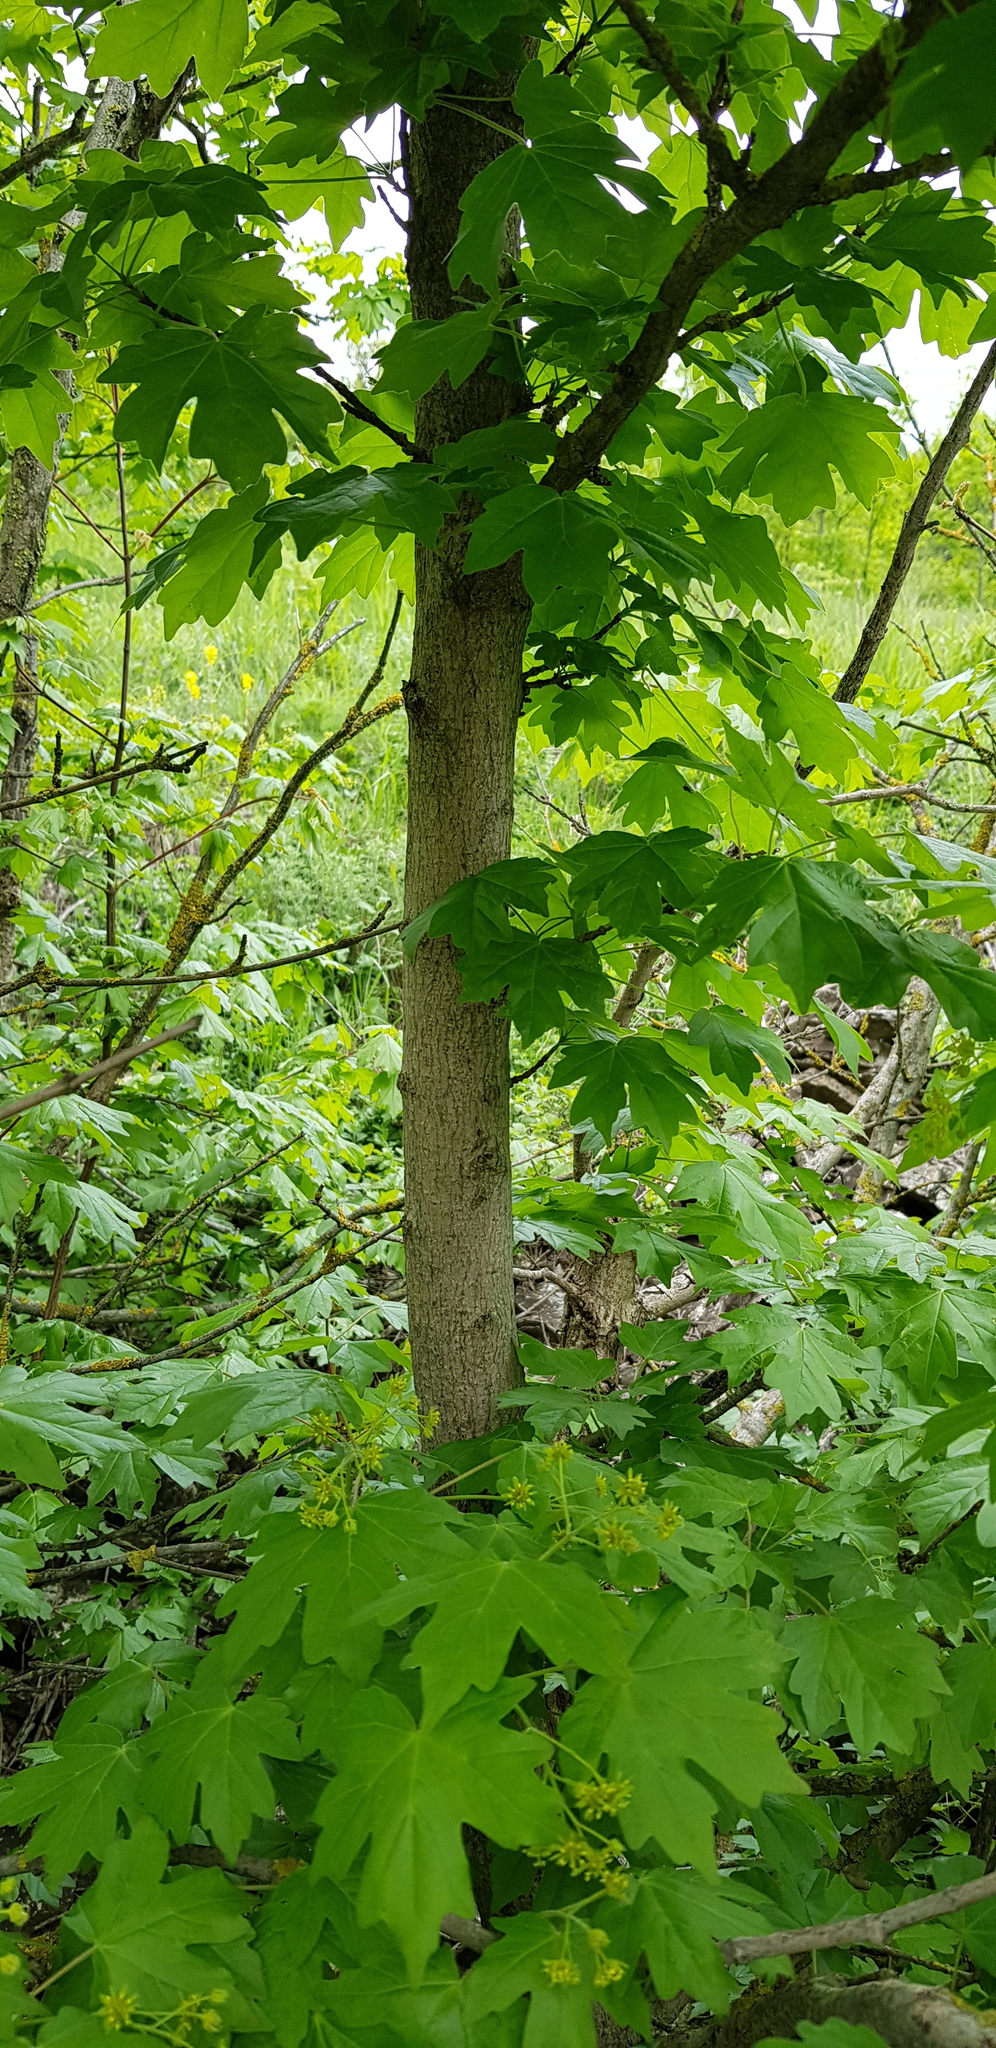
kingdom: Plantae
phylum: Tracheophyta
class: Magnoliopsida
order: Sapindales
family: Sapindaceae
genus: Acer
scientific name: Acer campestre
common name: Field maple
